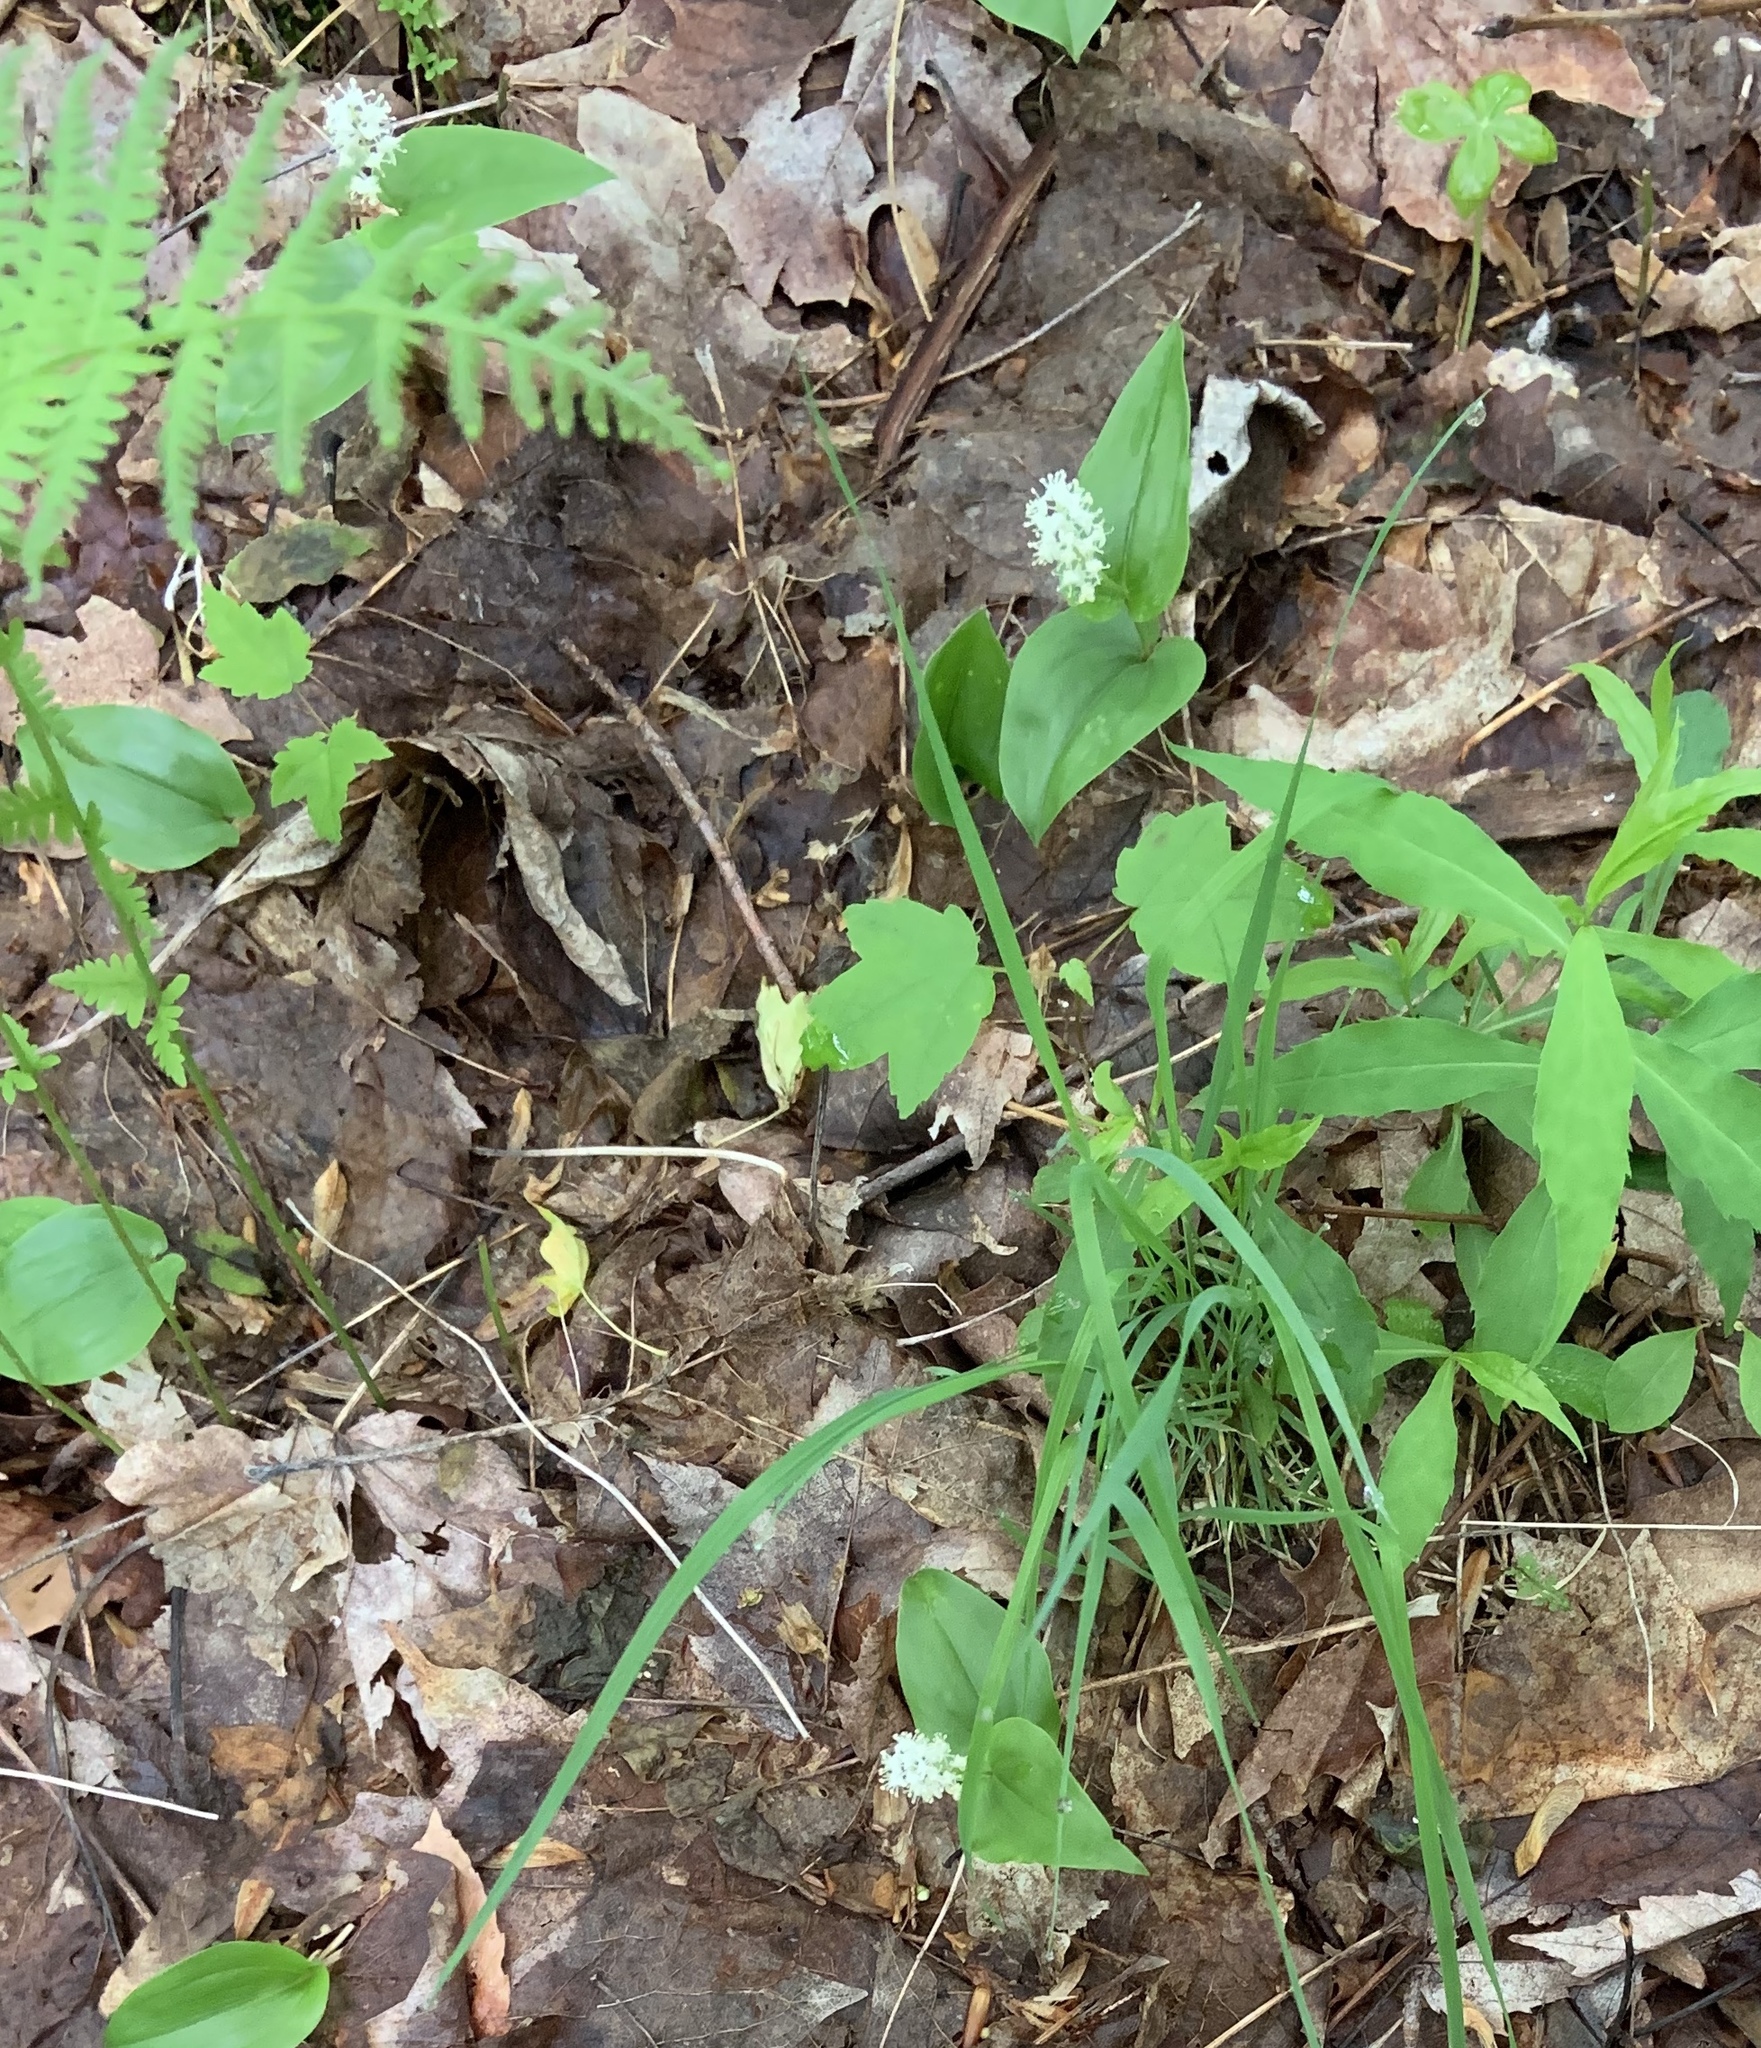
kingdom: Plantae
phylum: Tracheophyta
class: Liliopsida
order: Asparagales
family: Asparagaceae
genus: Maianthemum
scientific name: Maianthemum canadense
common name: False lily-of-the-valley
